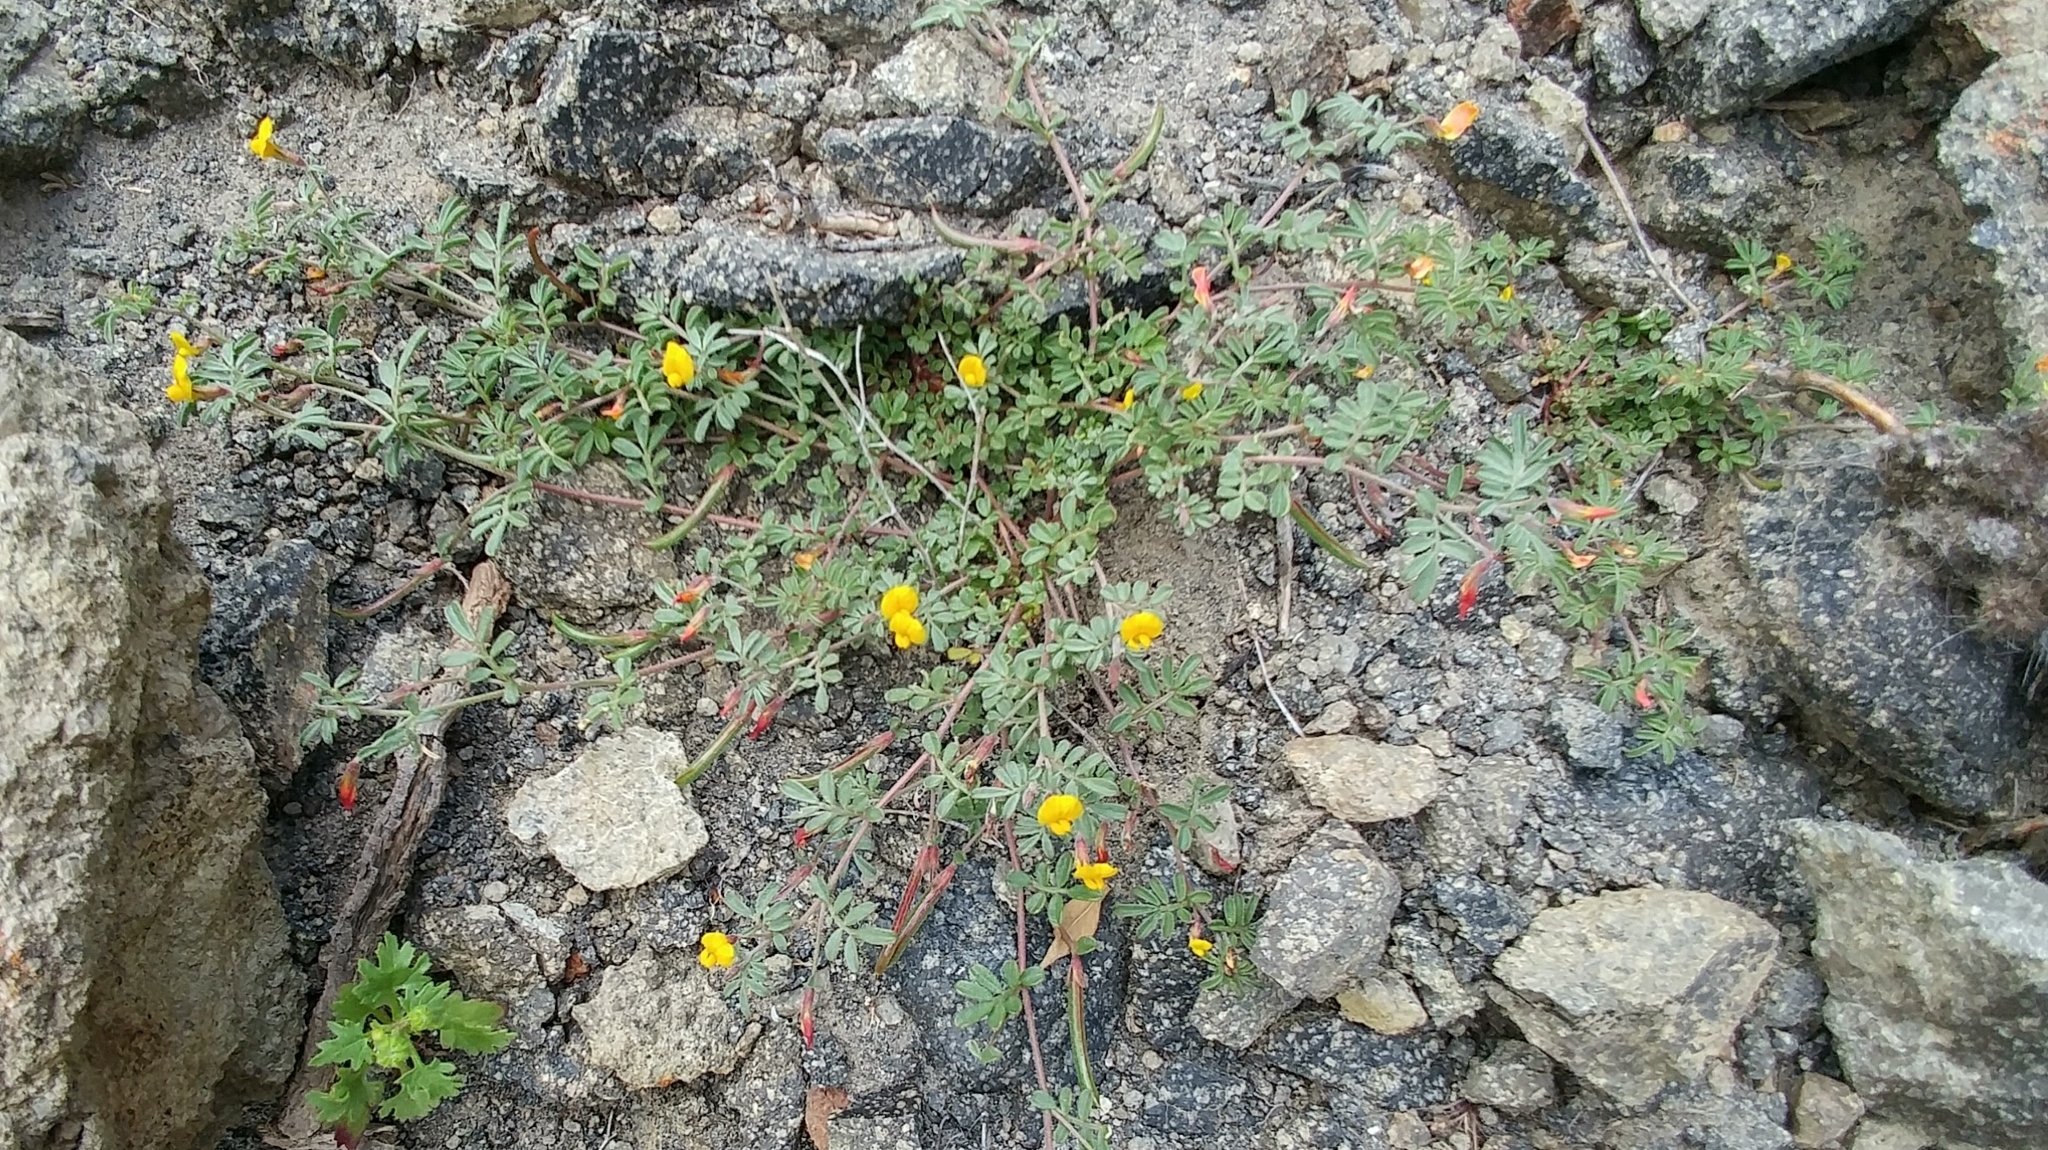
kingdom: Plantae
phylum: Tracheophyta
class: Magnoliopsida
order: Fabales
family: Fabaceae
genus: Acmispon
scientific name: Acmispon strigosus
